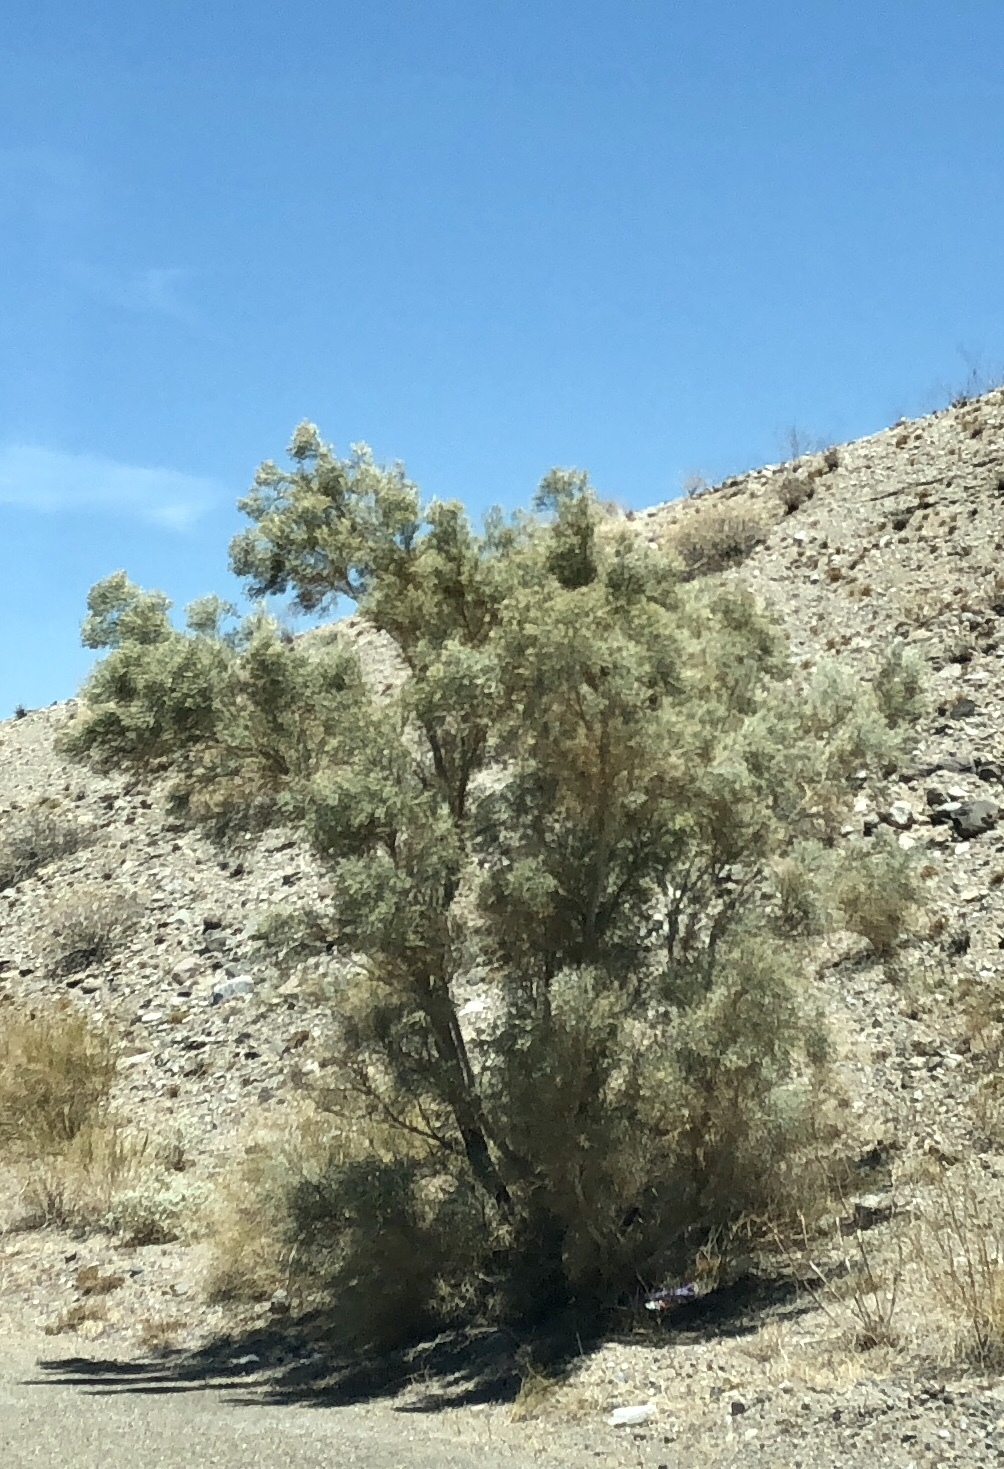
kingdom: Plantae
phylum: Tracheophyta
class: Magnoliopsida
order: Fabales
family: Fabaceae
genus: Psorothamnus
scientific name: Psorothamnus spinosus
